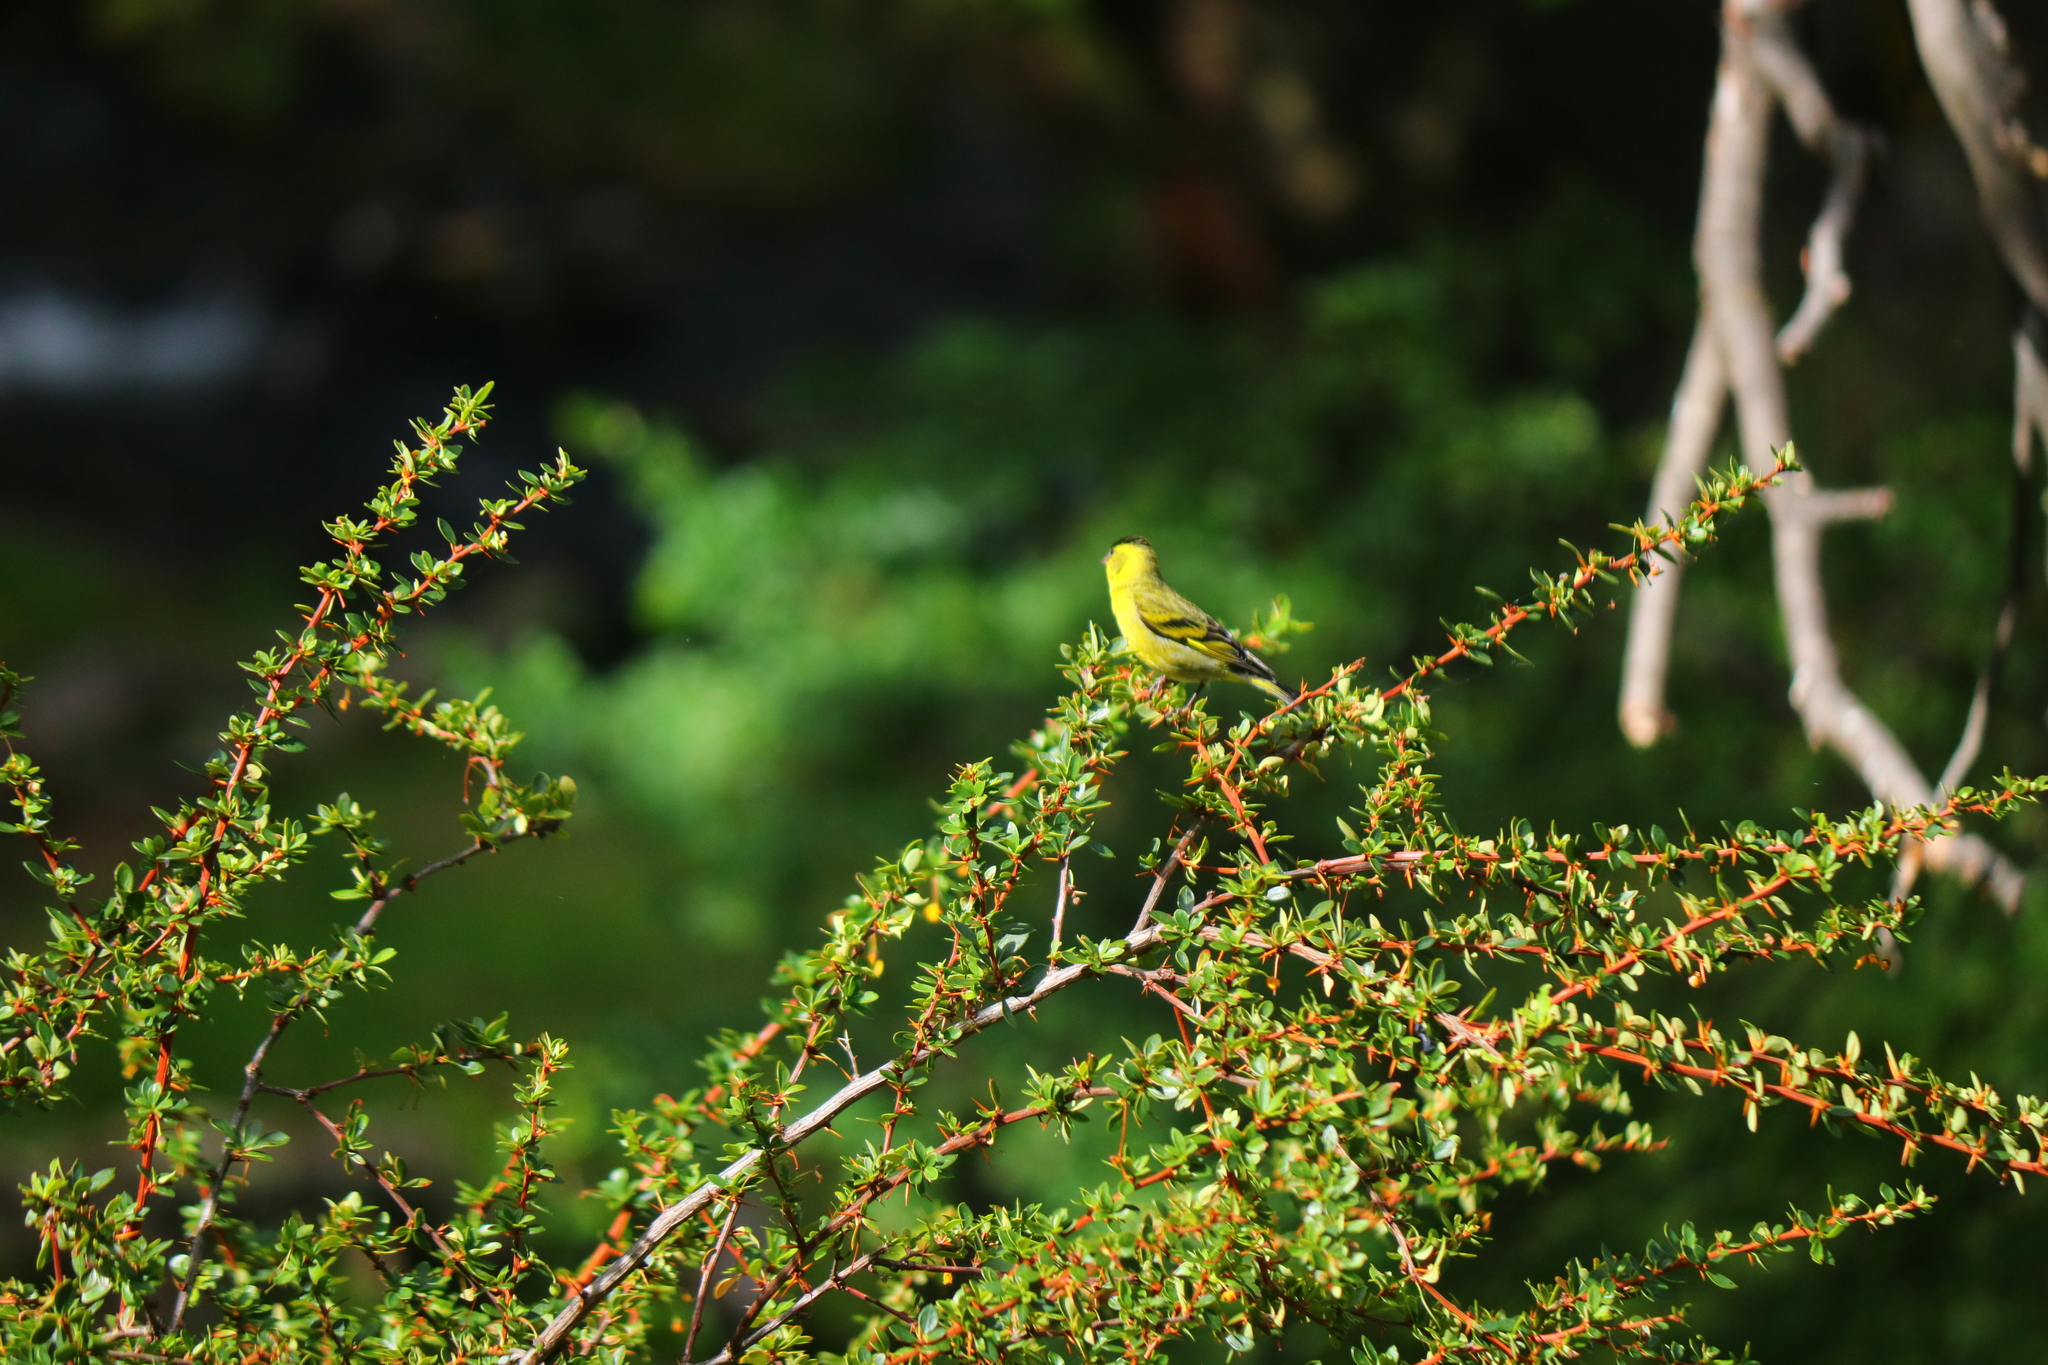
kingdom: Animalia
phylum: Chordata
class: Aves
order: Passeriformes
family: Fringillidae
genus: Spinus
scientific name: Spinus barbatus
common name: Black-chinned siskin
